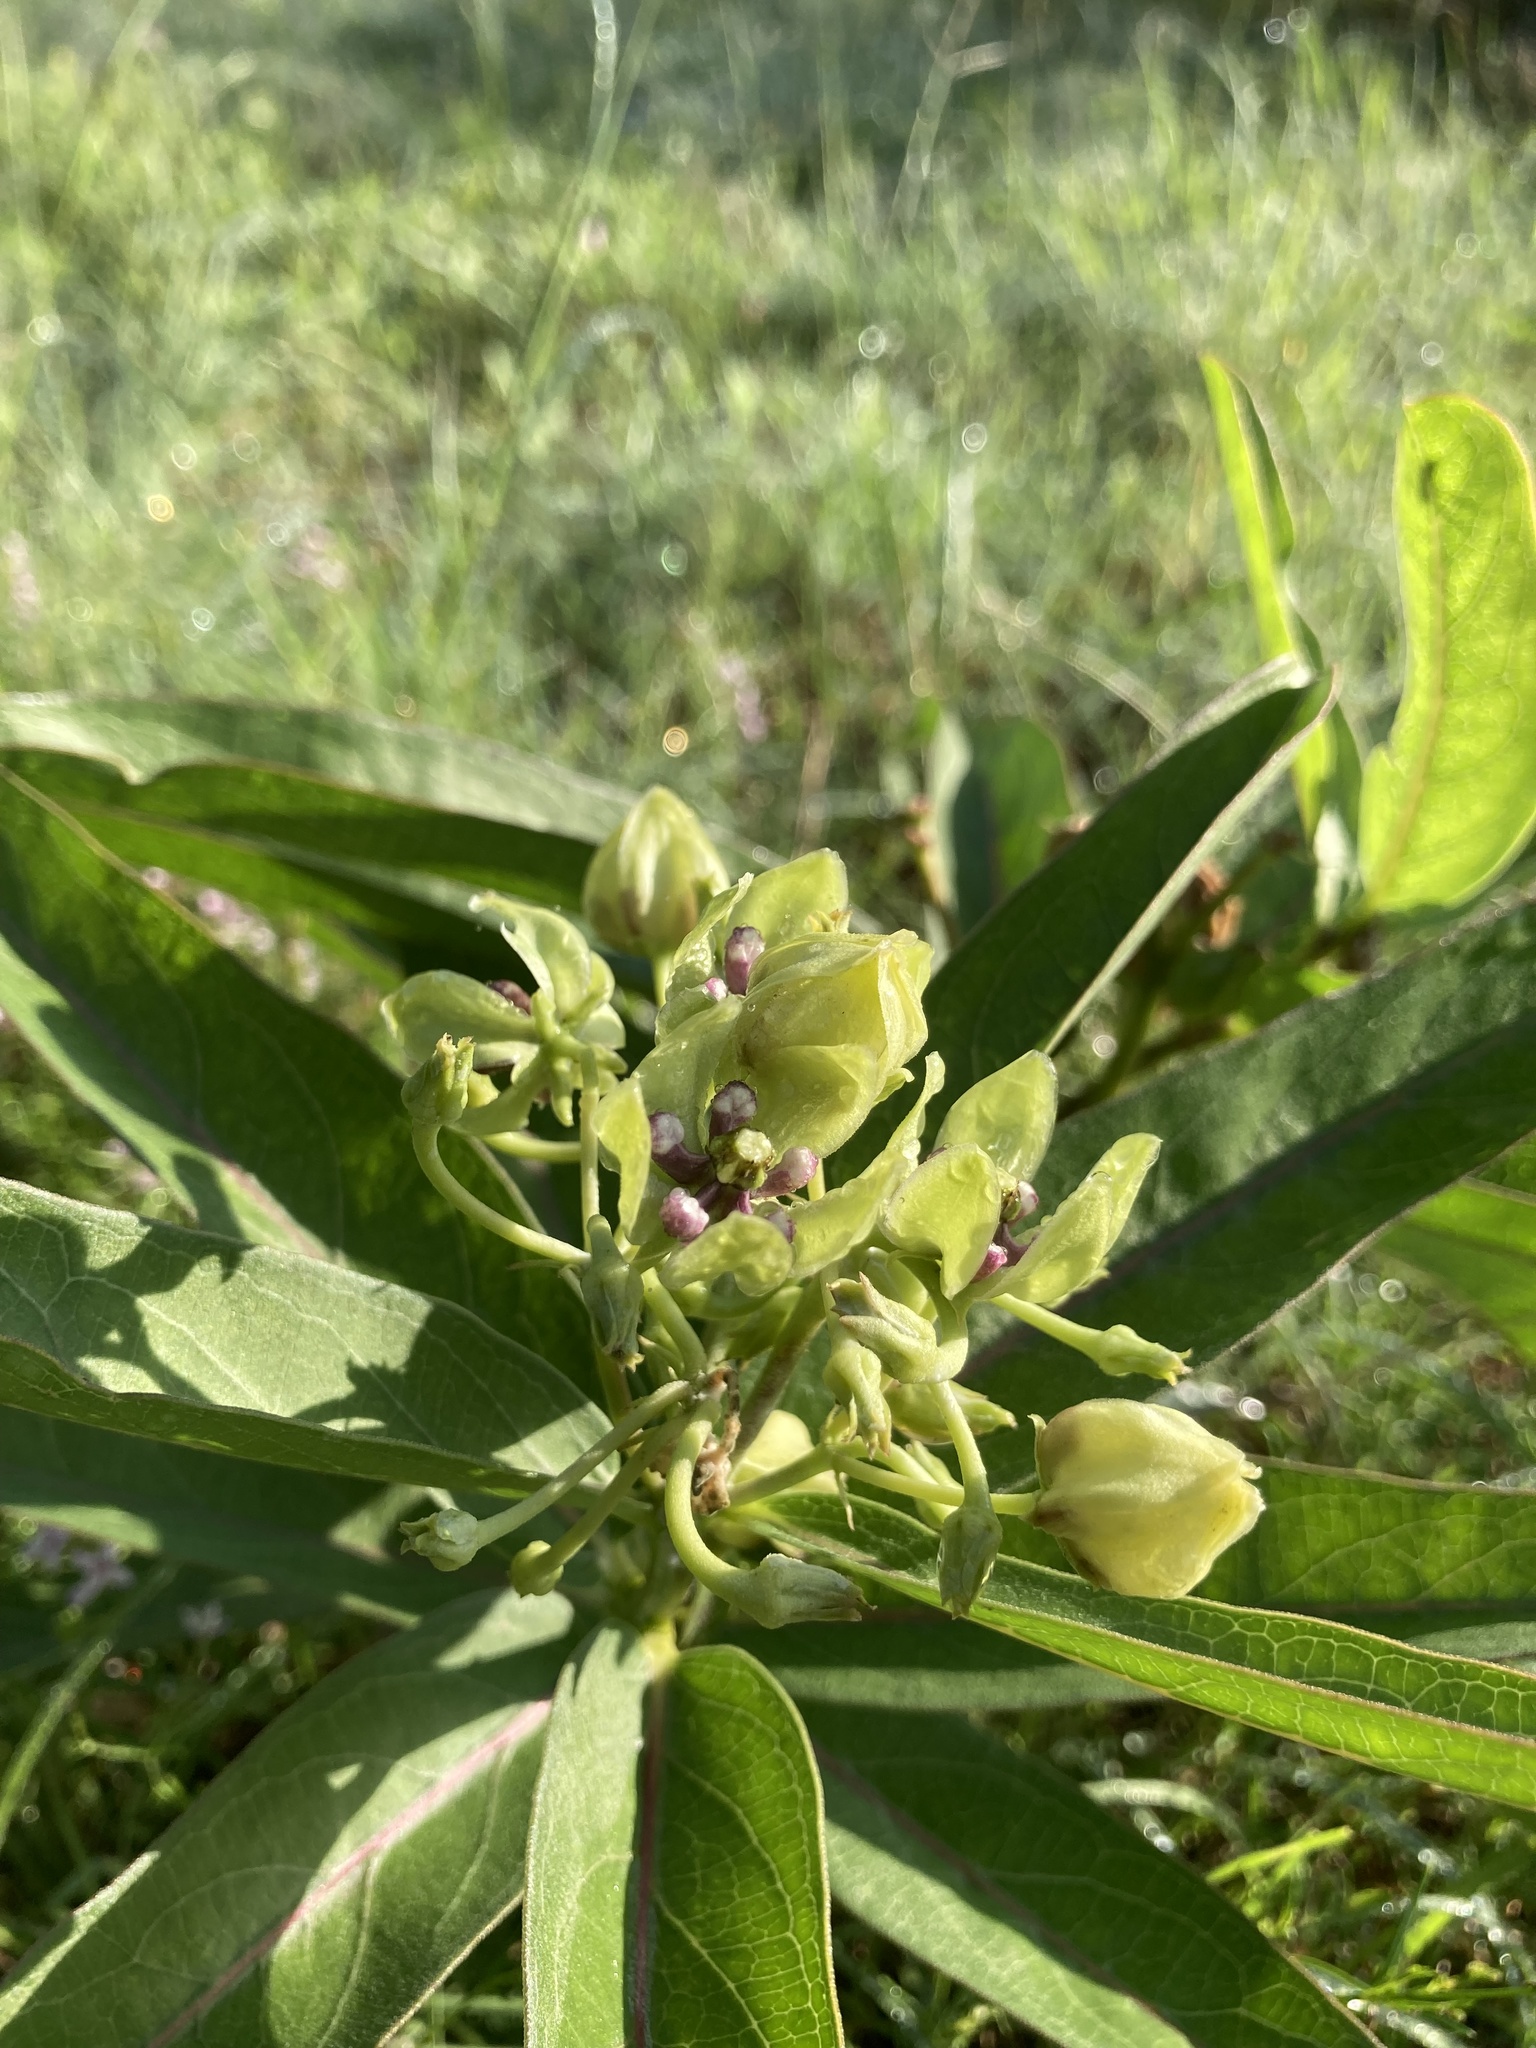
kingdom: Plantae
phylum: Tracheophyta
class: Magnoliopsida
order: Gentianales
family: Apocynaceae
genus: Asclepias
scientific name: Asclepias viridis
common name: Antelope-horns
